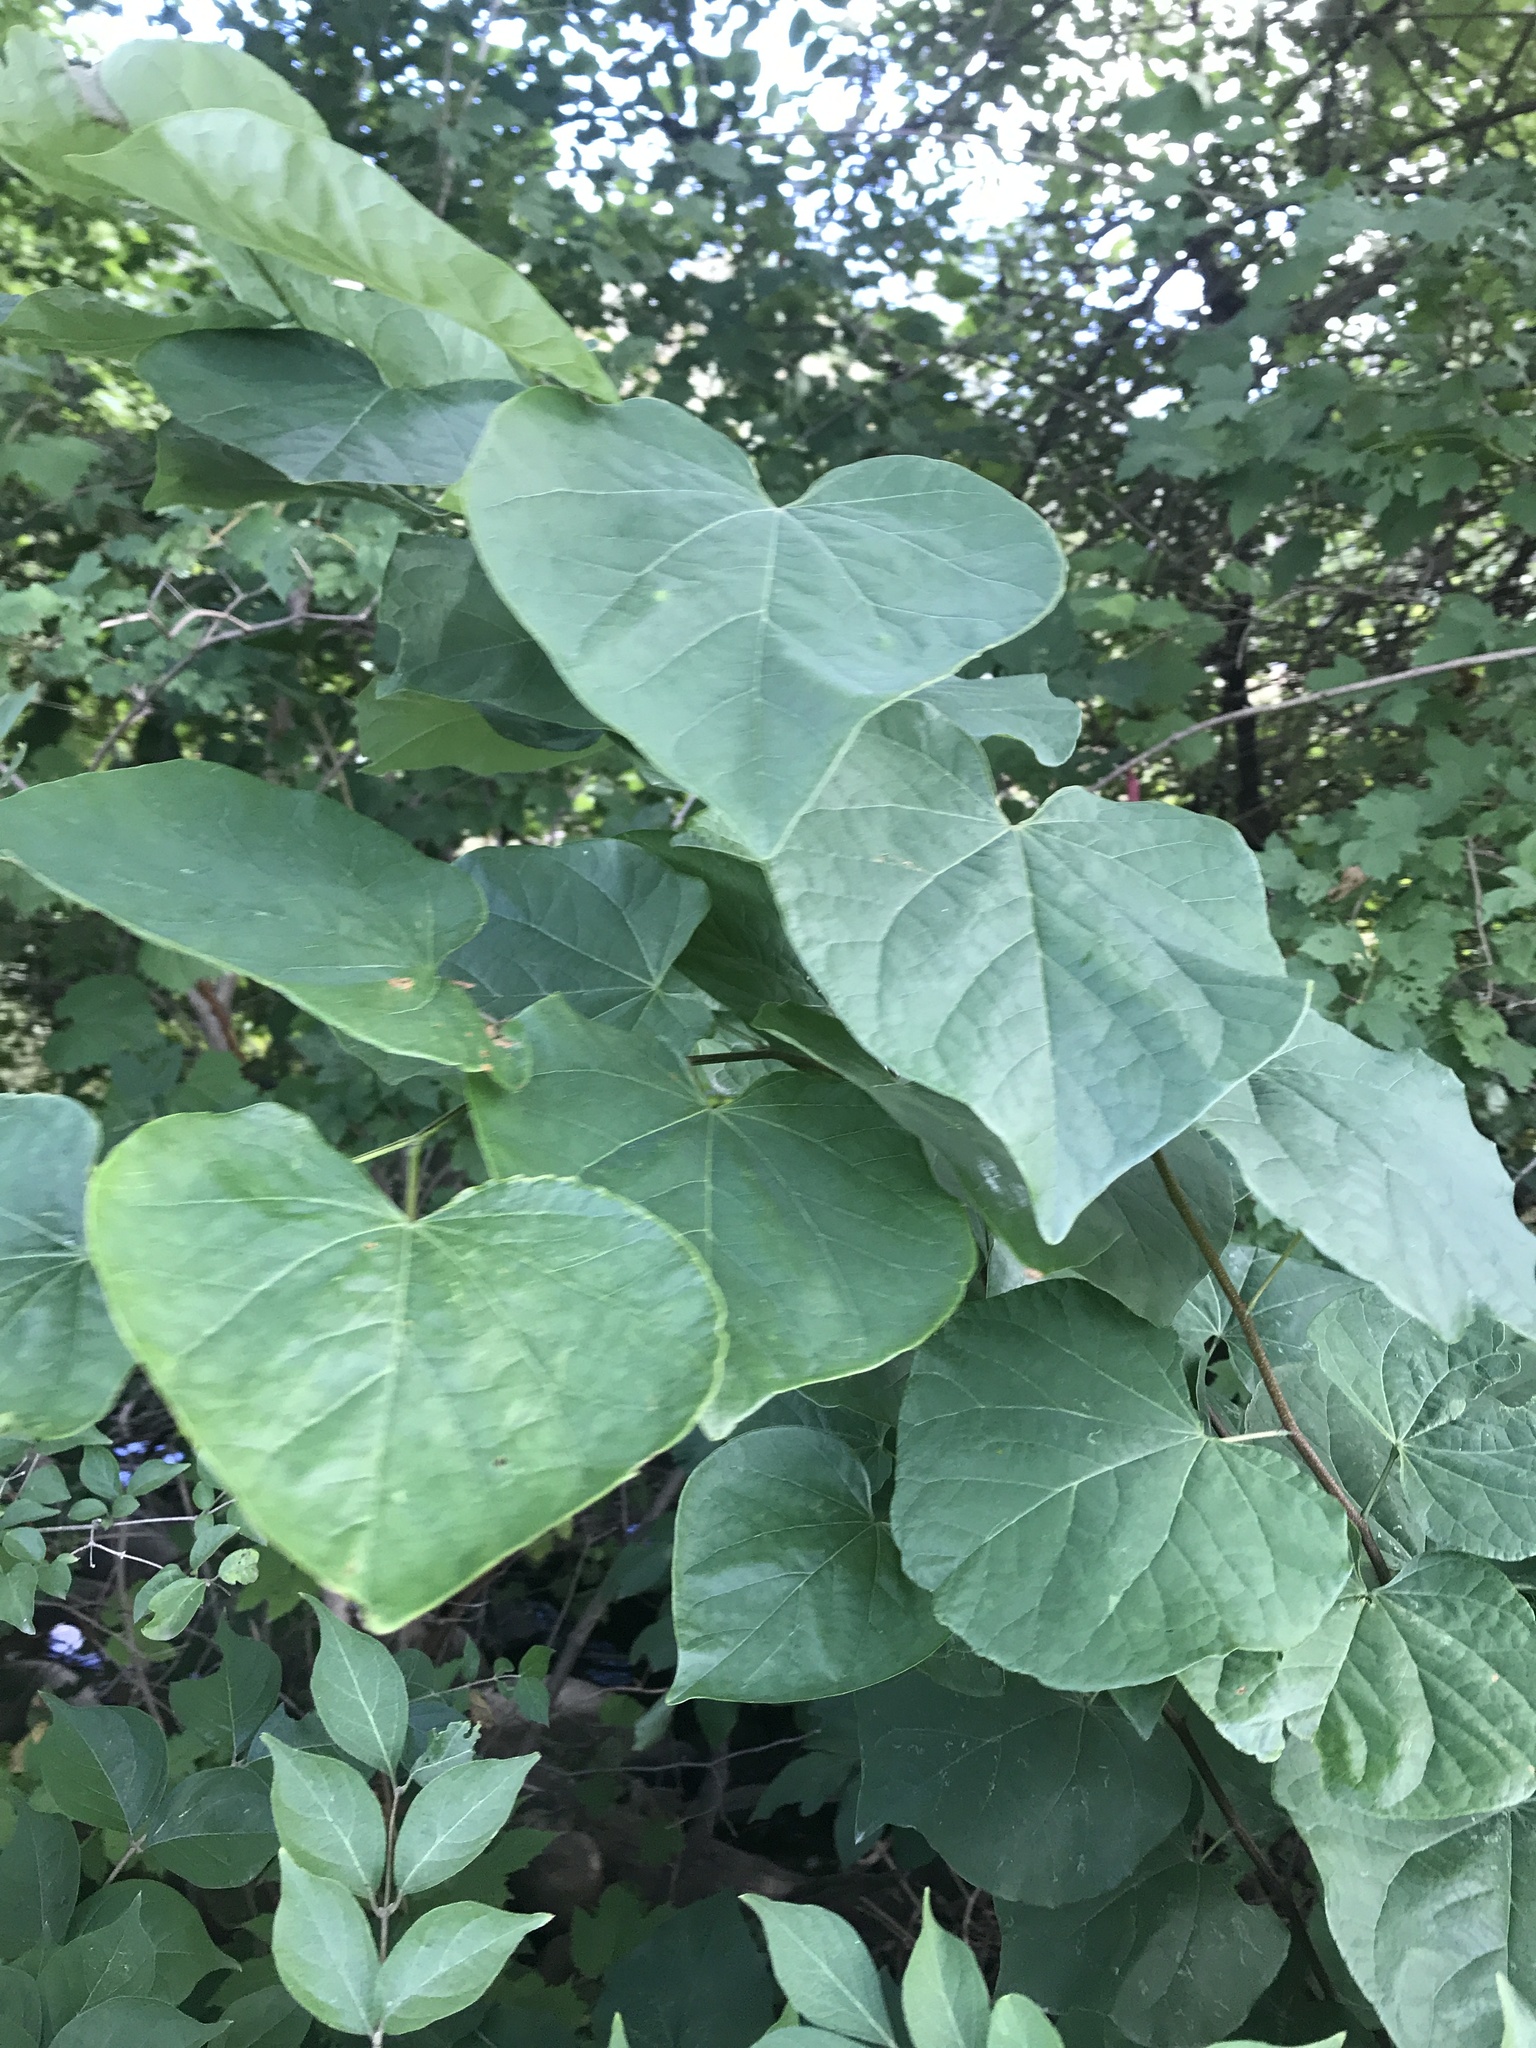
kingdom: Plantae
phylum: Tracheophyta
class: Magnoliopsida
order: Fabales
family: Fabaceae
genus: Cercis
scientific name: Cercis canadensis
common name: Eastern redbud
